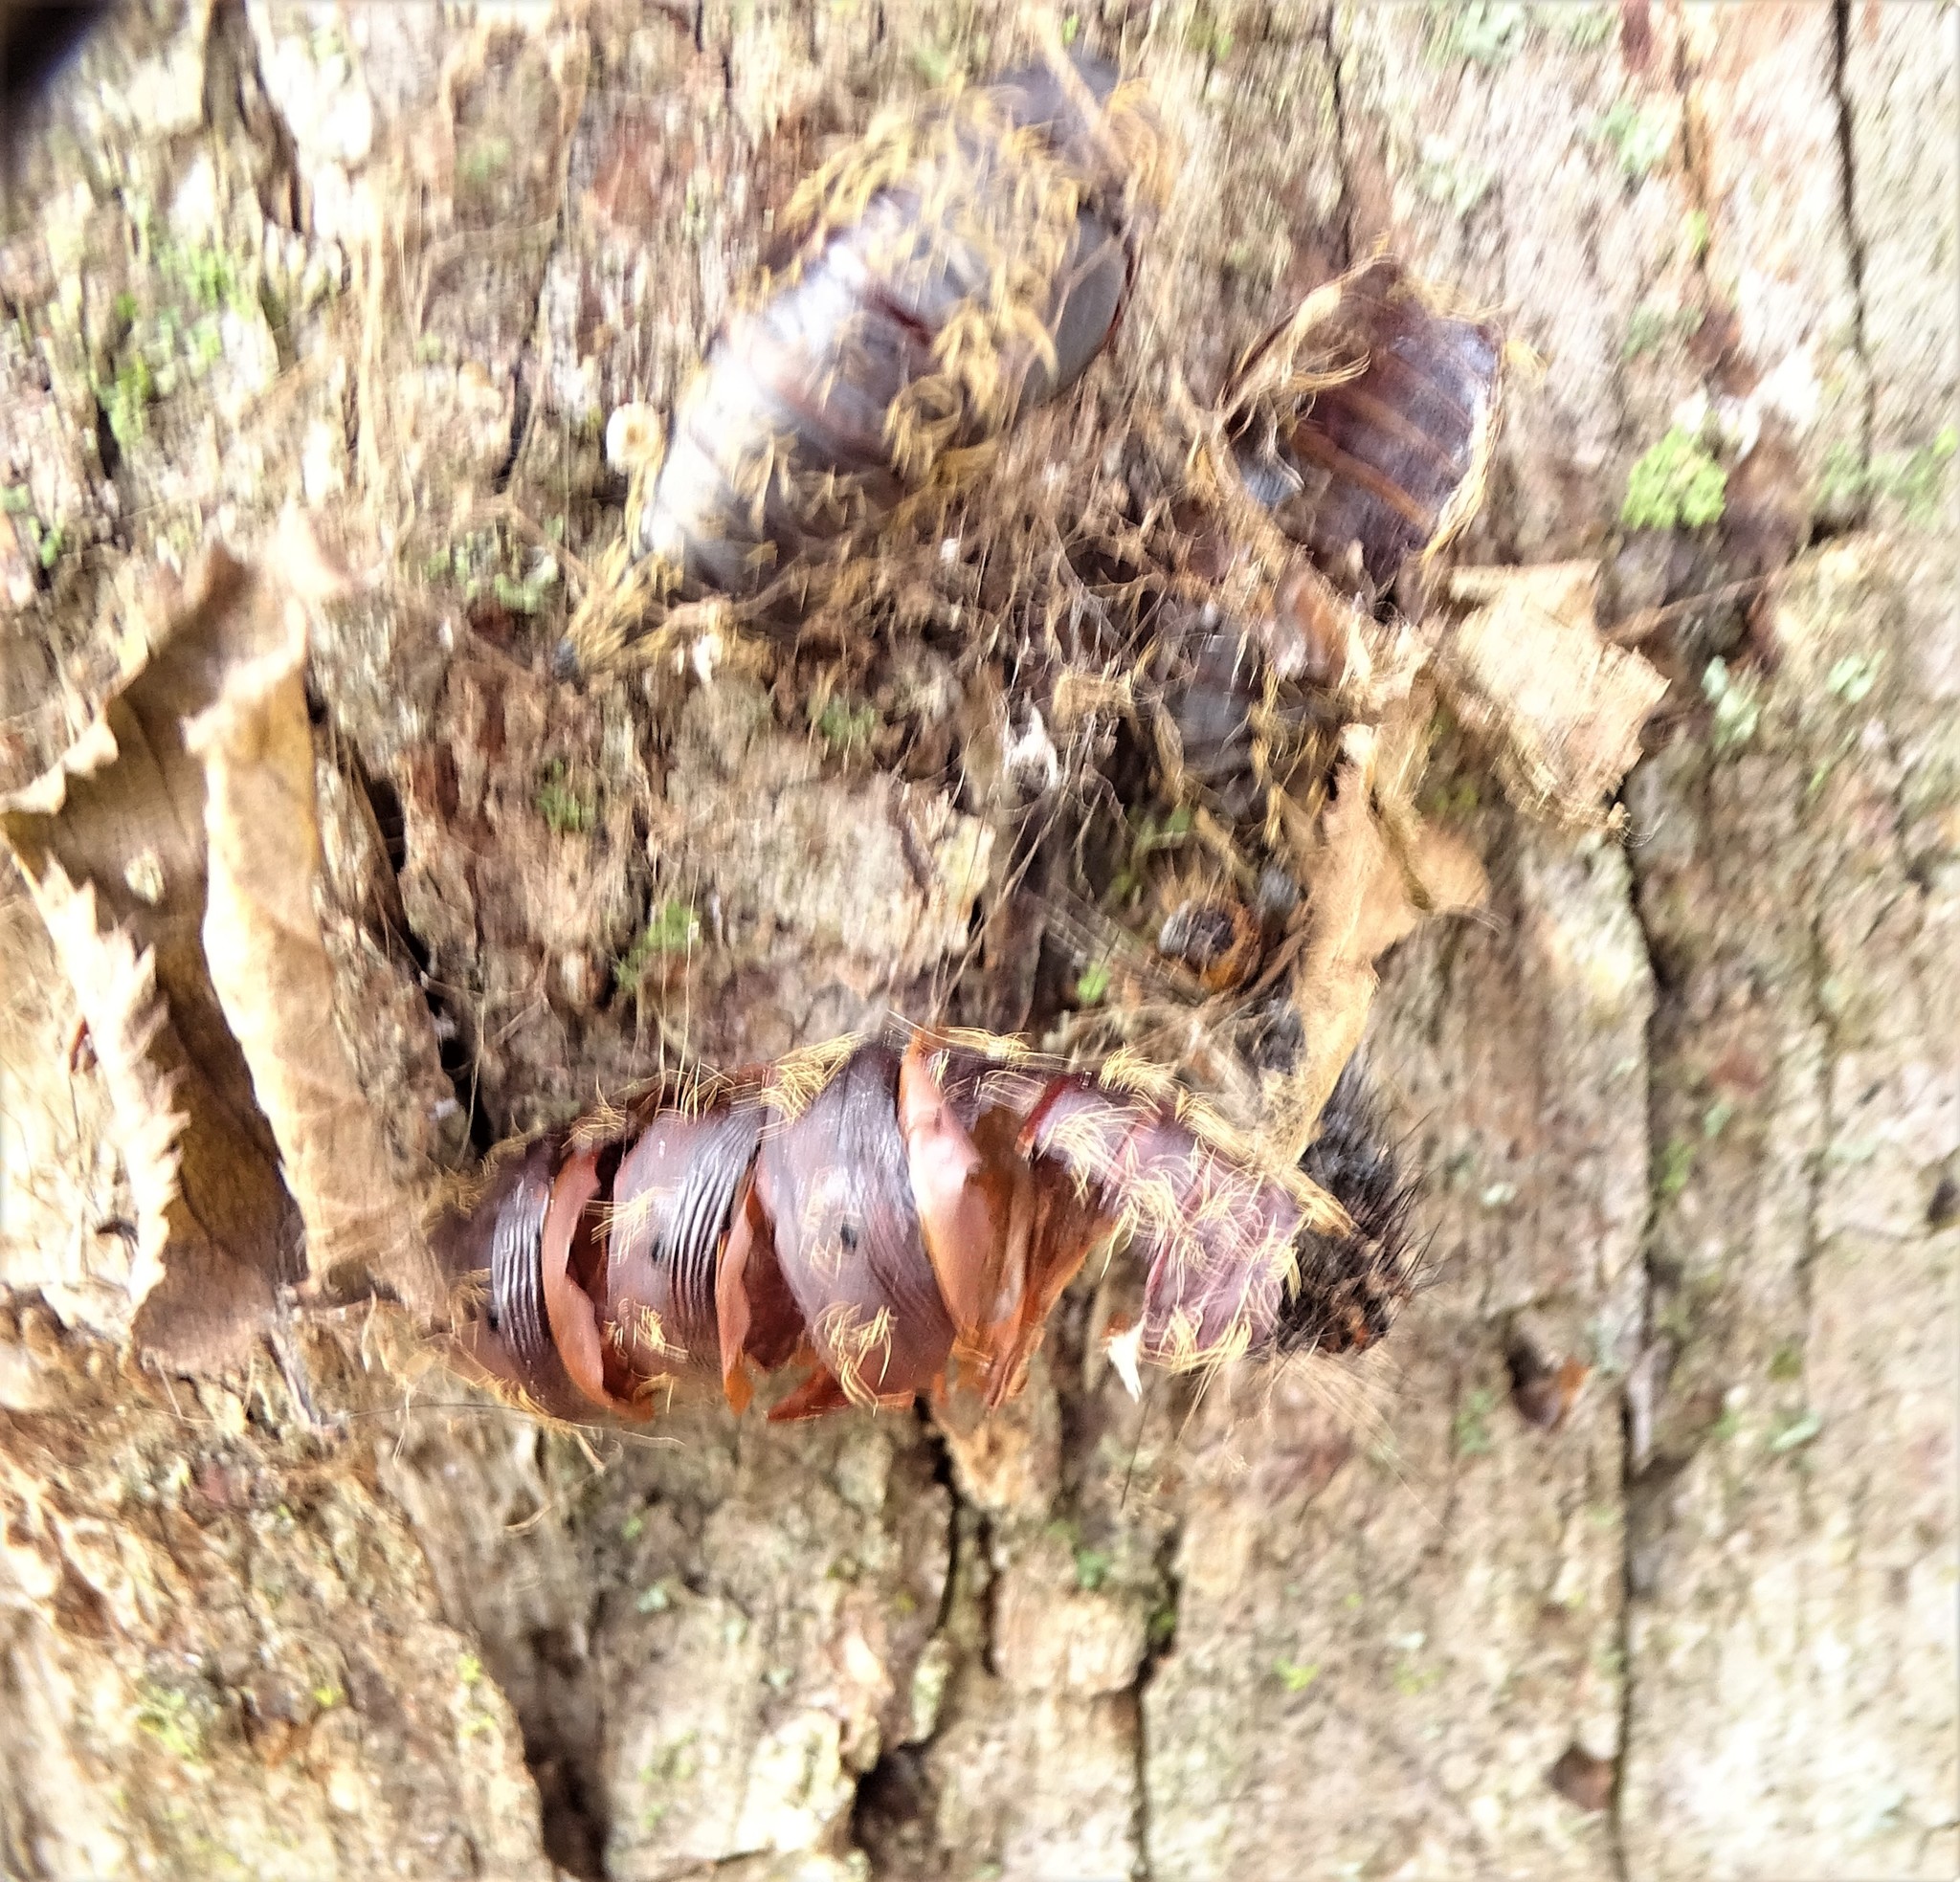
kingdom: Animalia
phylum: Arthropoda
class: Insecta
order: Lepidoptera
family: Erebidae
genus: Lymantria
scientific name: Lymantria dispar
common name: Gypsy moth
